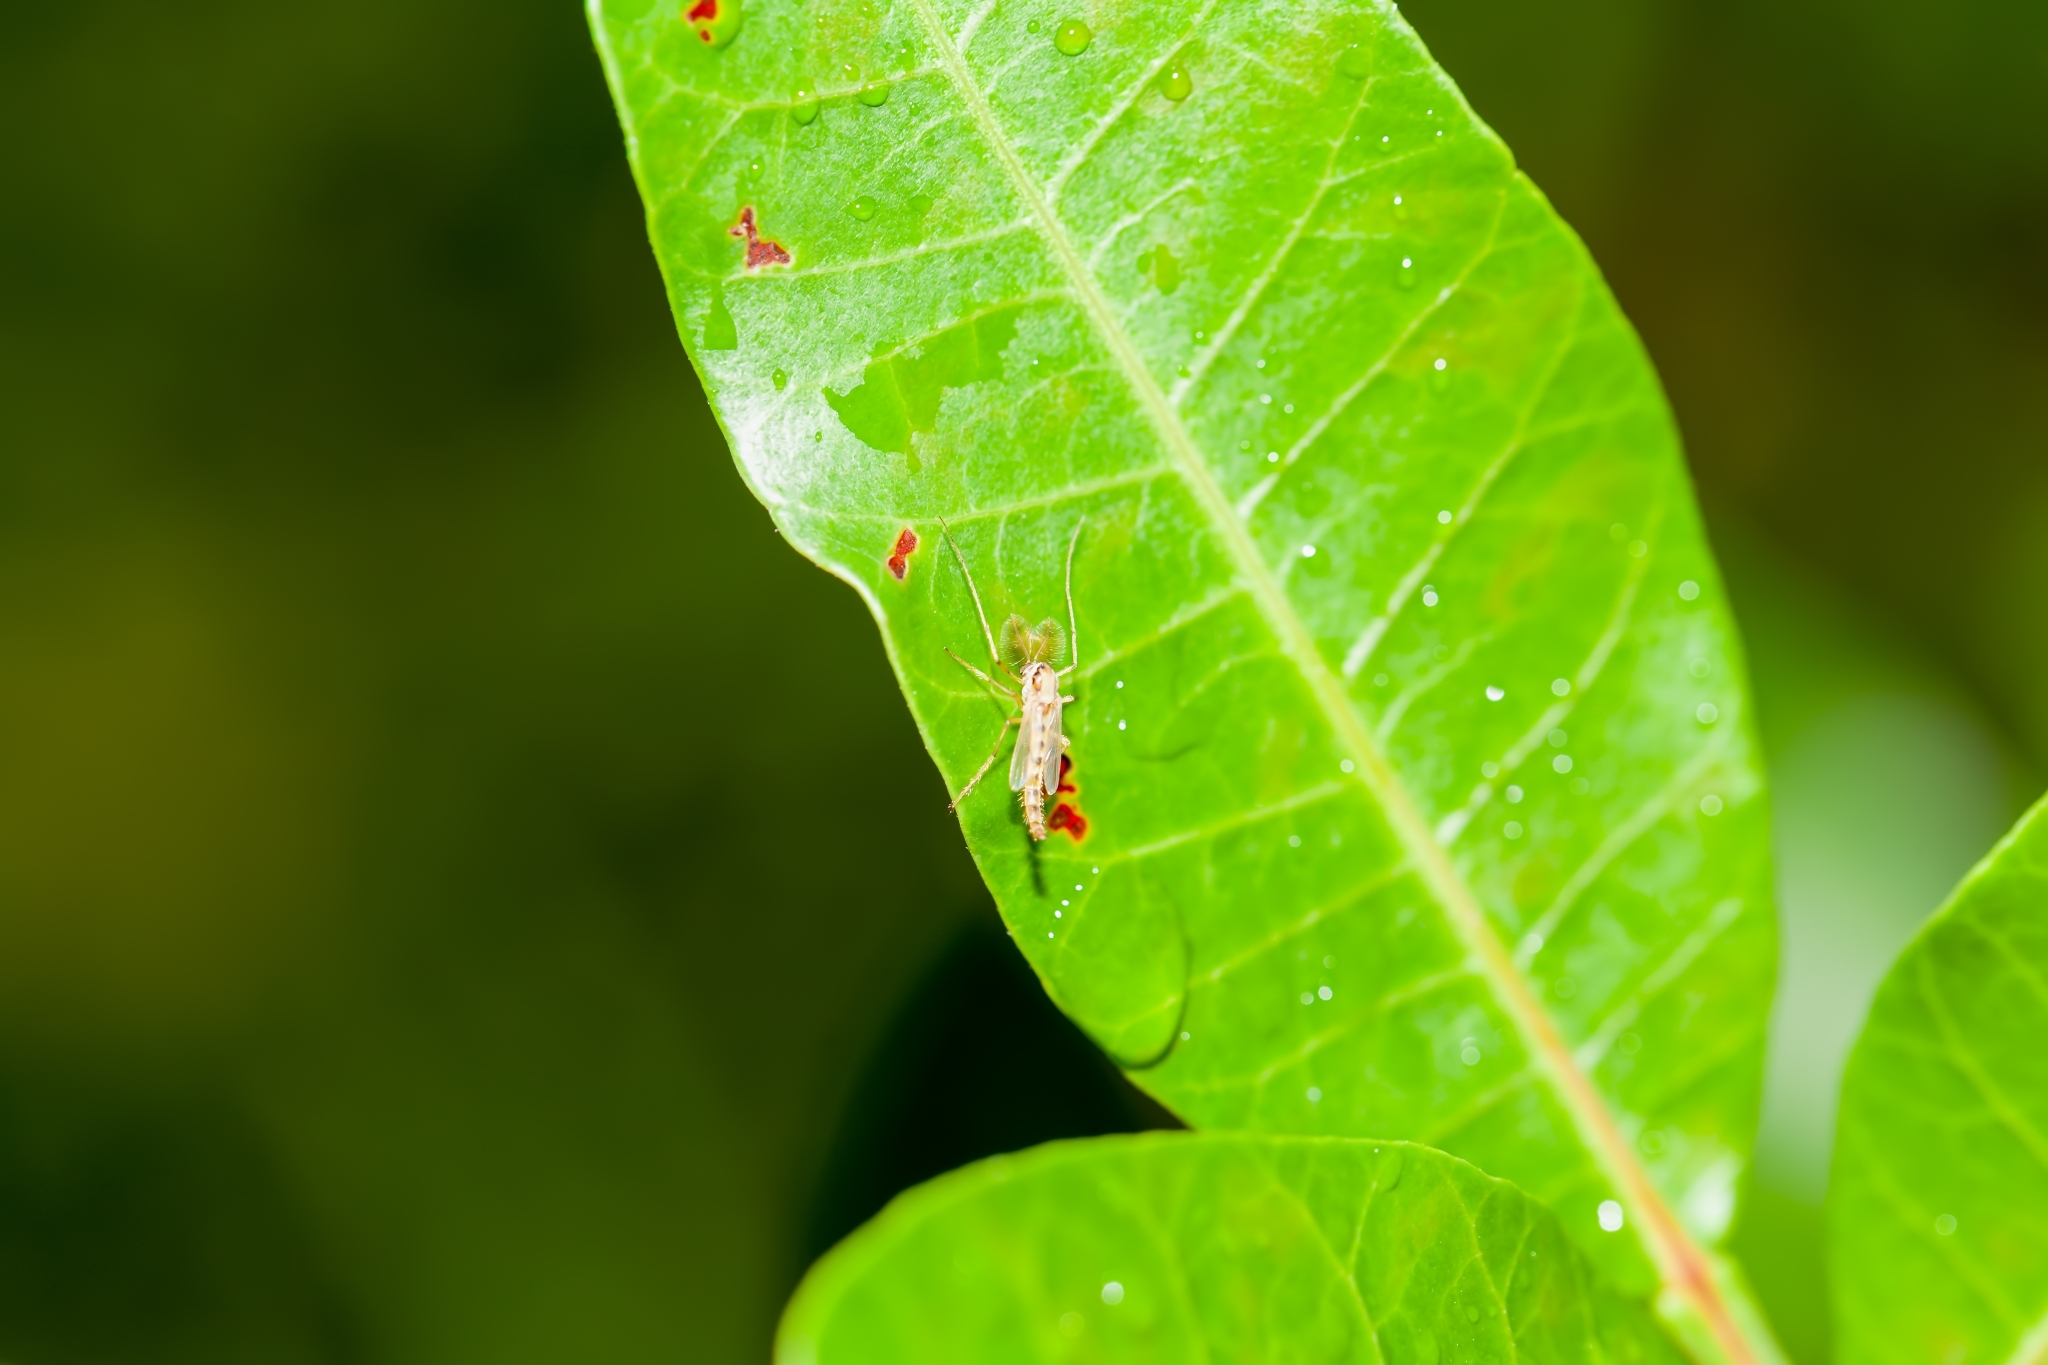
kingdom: Animalia
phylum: Arthropoda
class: Insecta
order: Diptera
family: Chironomidae
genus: Goeldichironomus
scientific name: Goeldichironomus carus
